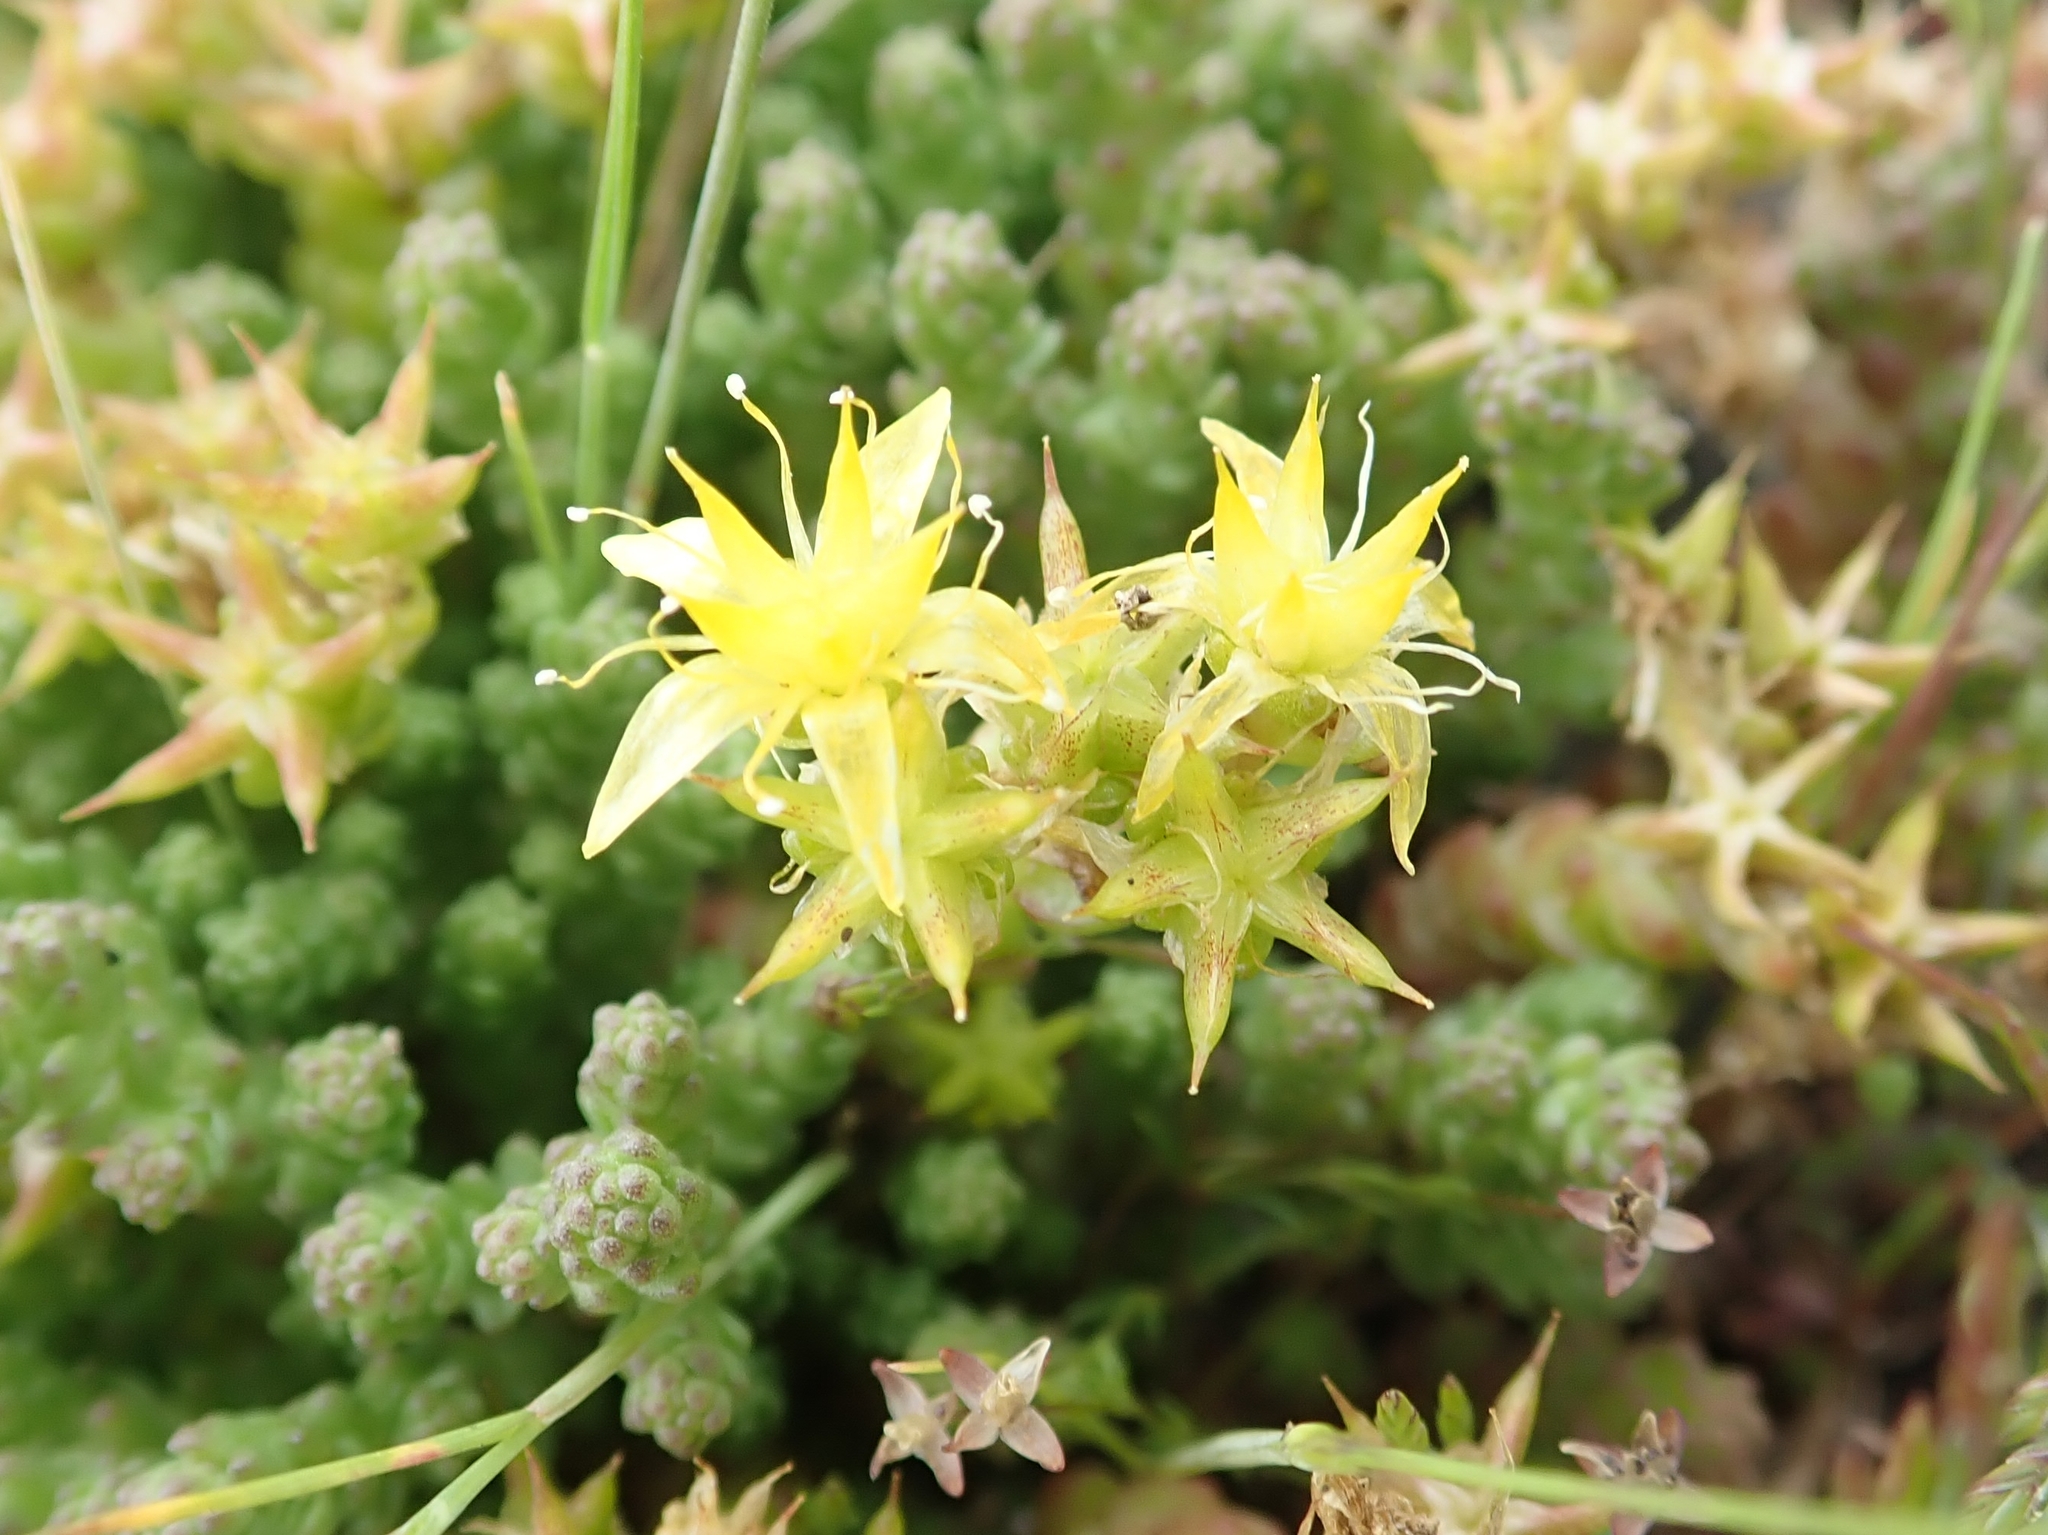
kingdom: Plantae
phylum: Tracheophyta
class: Magnoliopsida
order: Saxifragales
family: Crassulaceae
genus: Sedum
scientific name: Sedum acre
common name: Biting stonecrop
